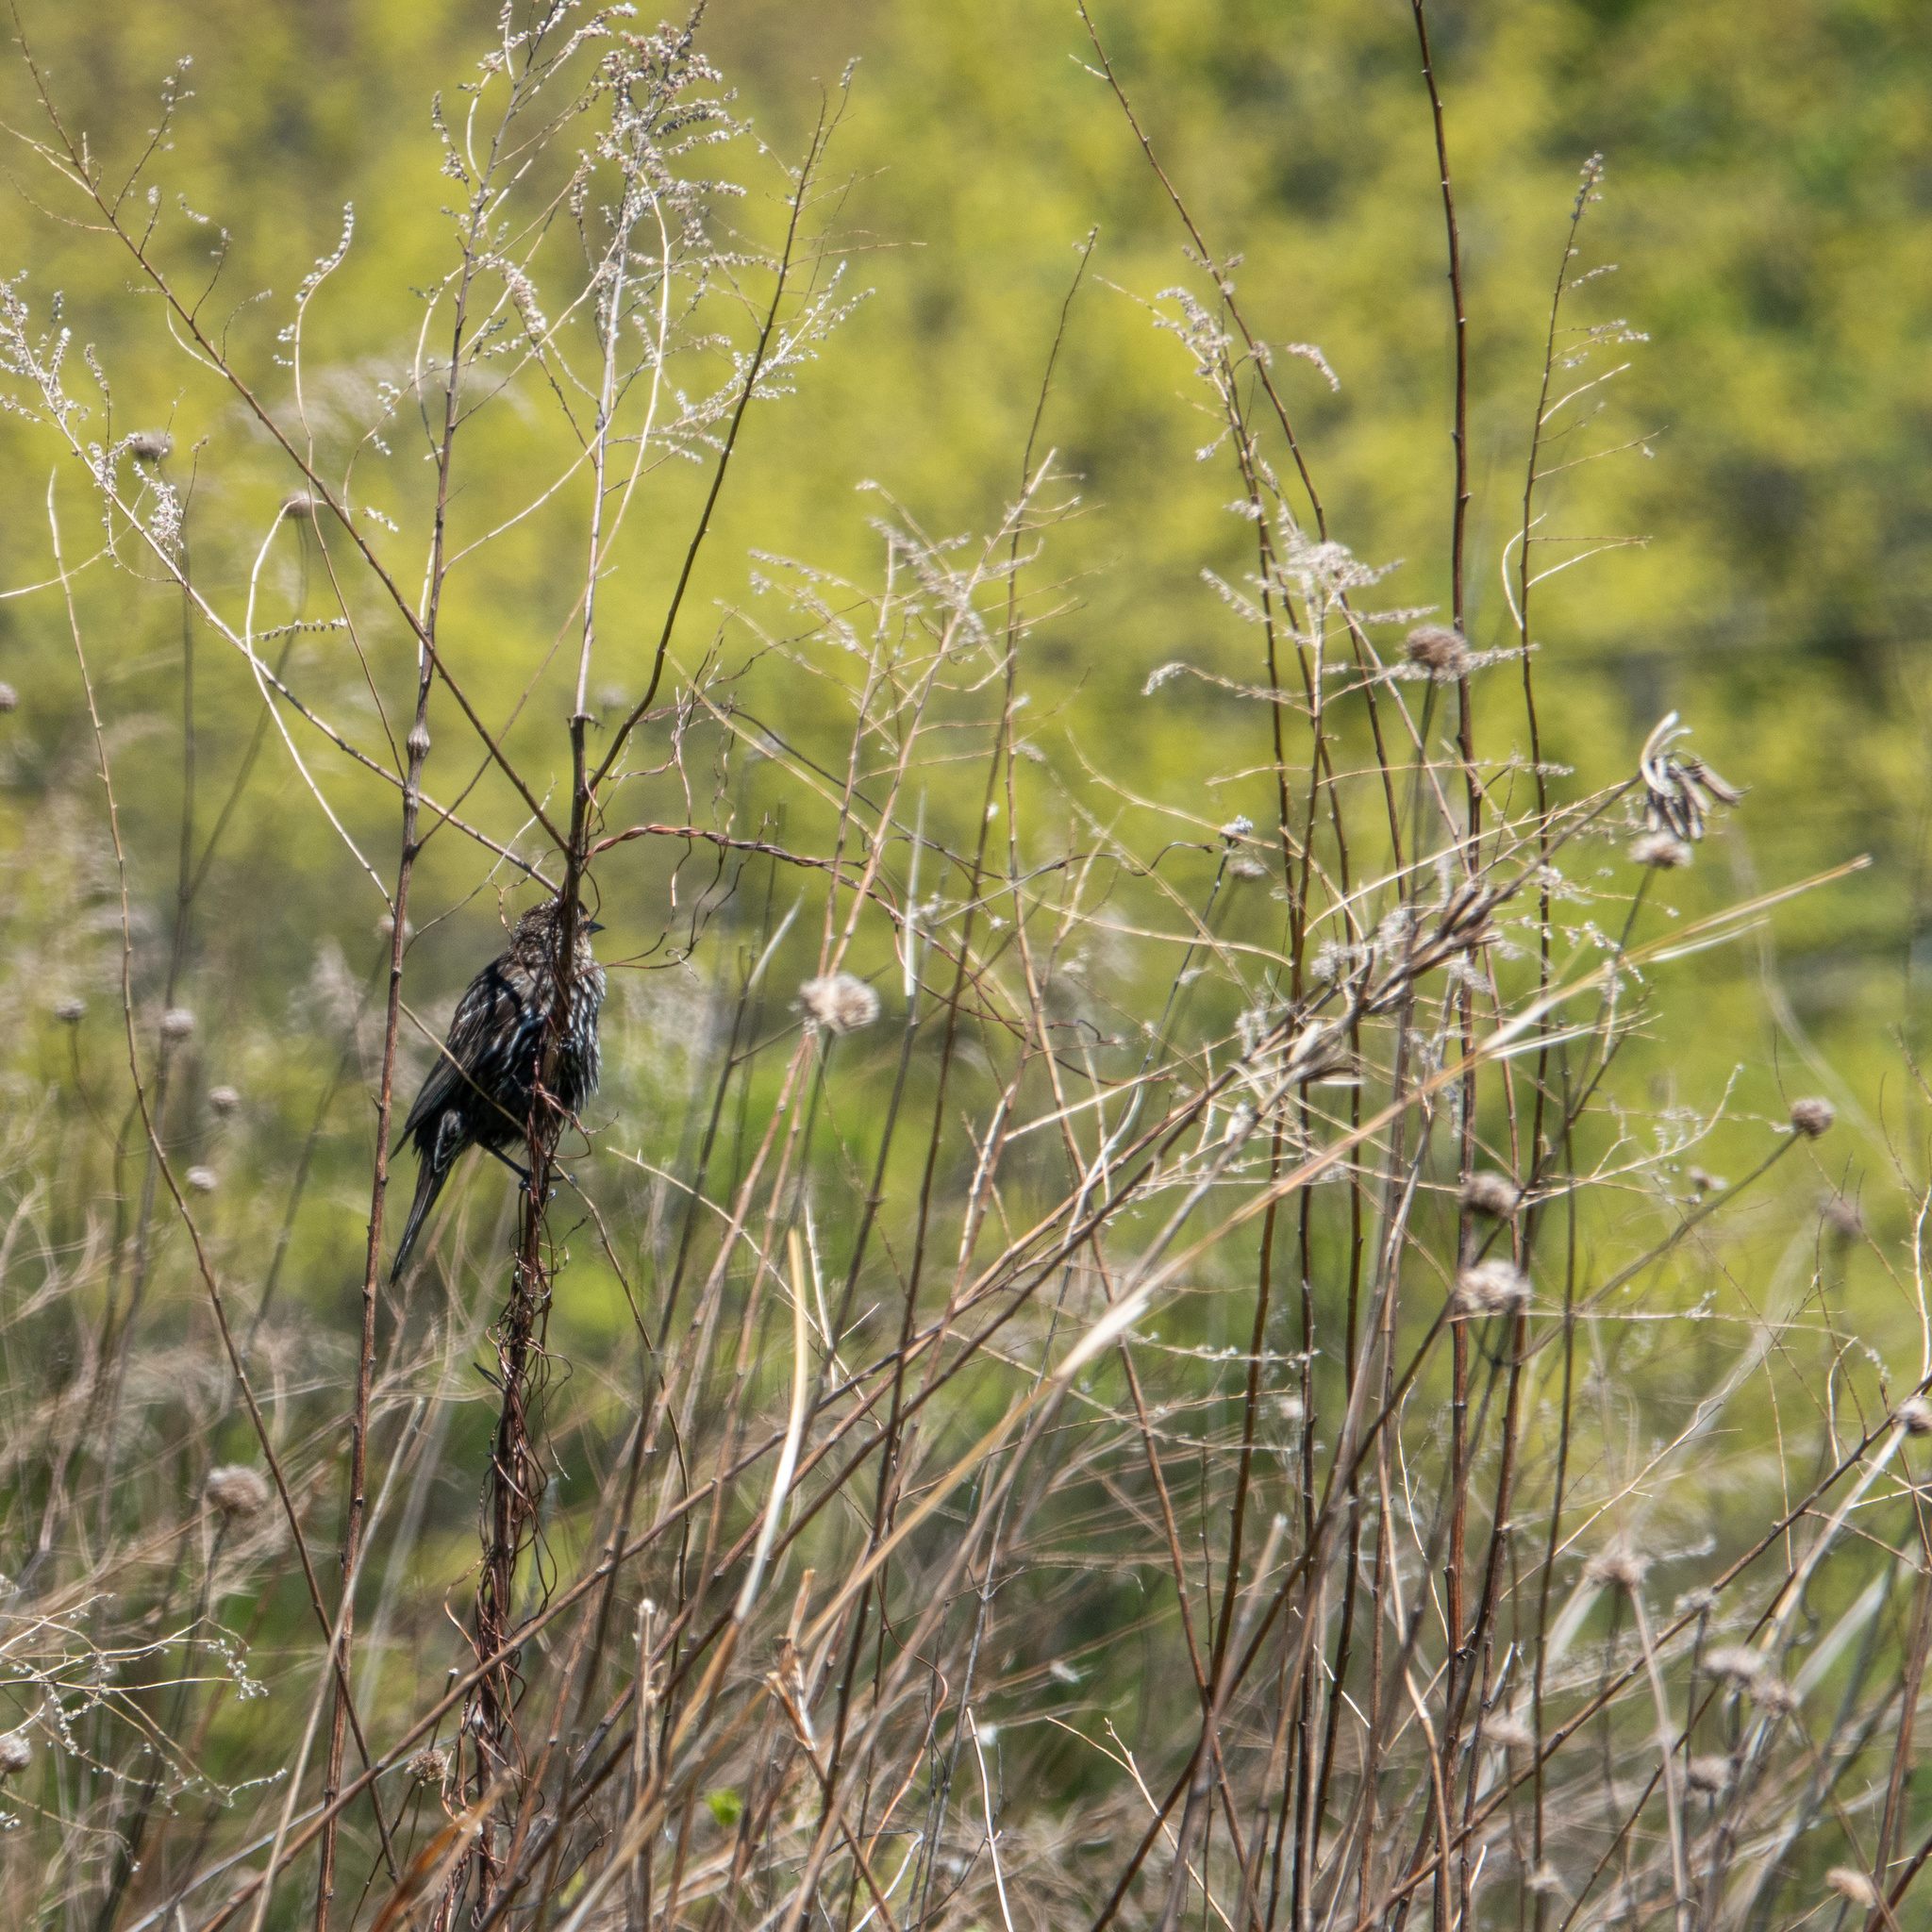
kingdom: Animalia
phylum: Chordata
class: Aves
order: Passeriformes
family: Icteridae
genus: Agelaius
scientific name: Agelaius phoeniceus
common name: Red-winged blackbird
